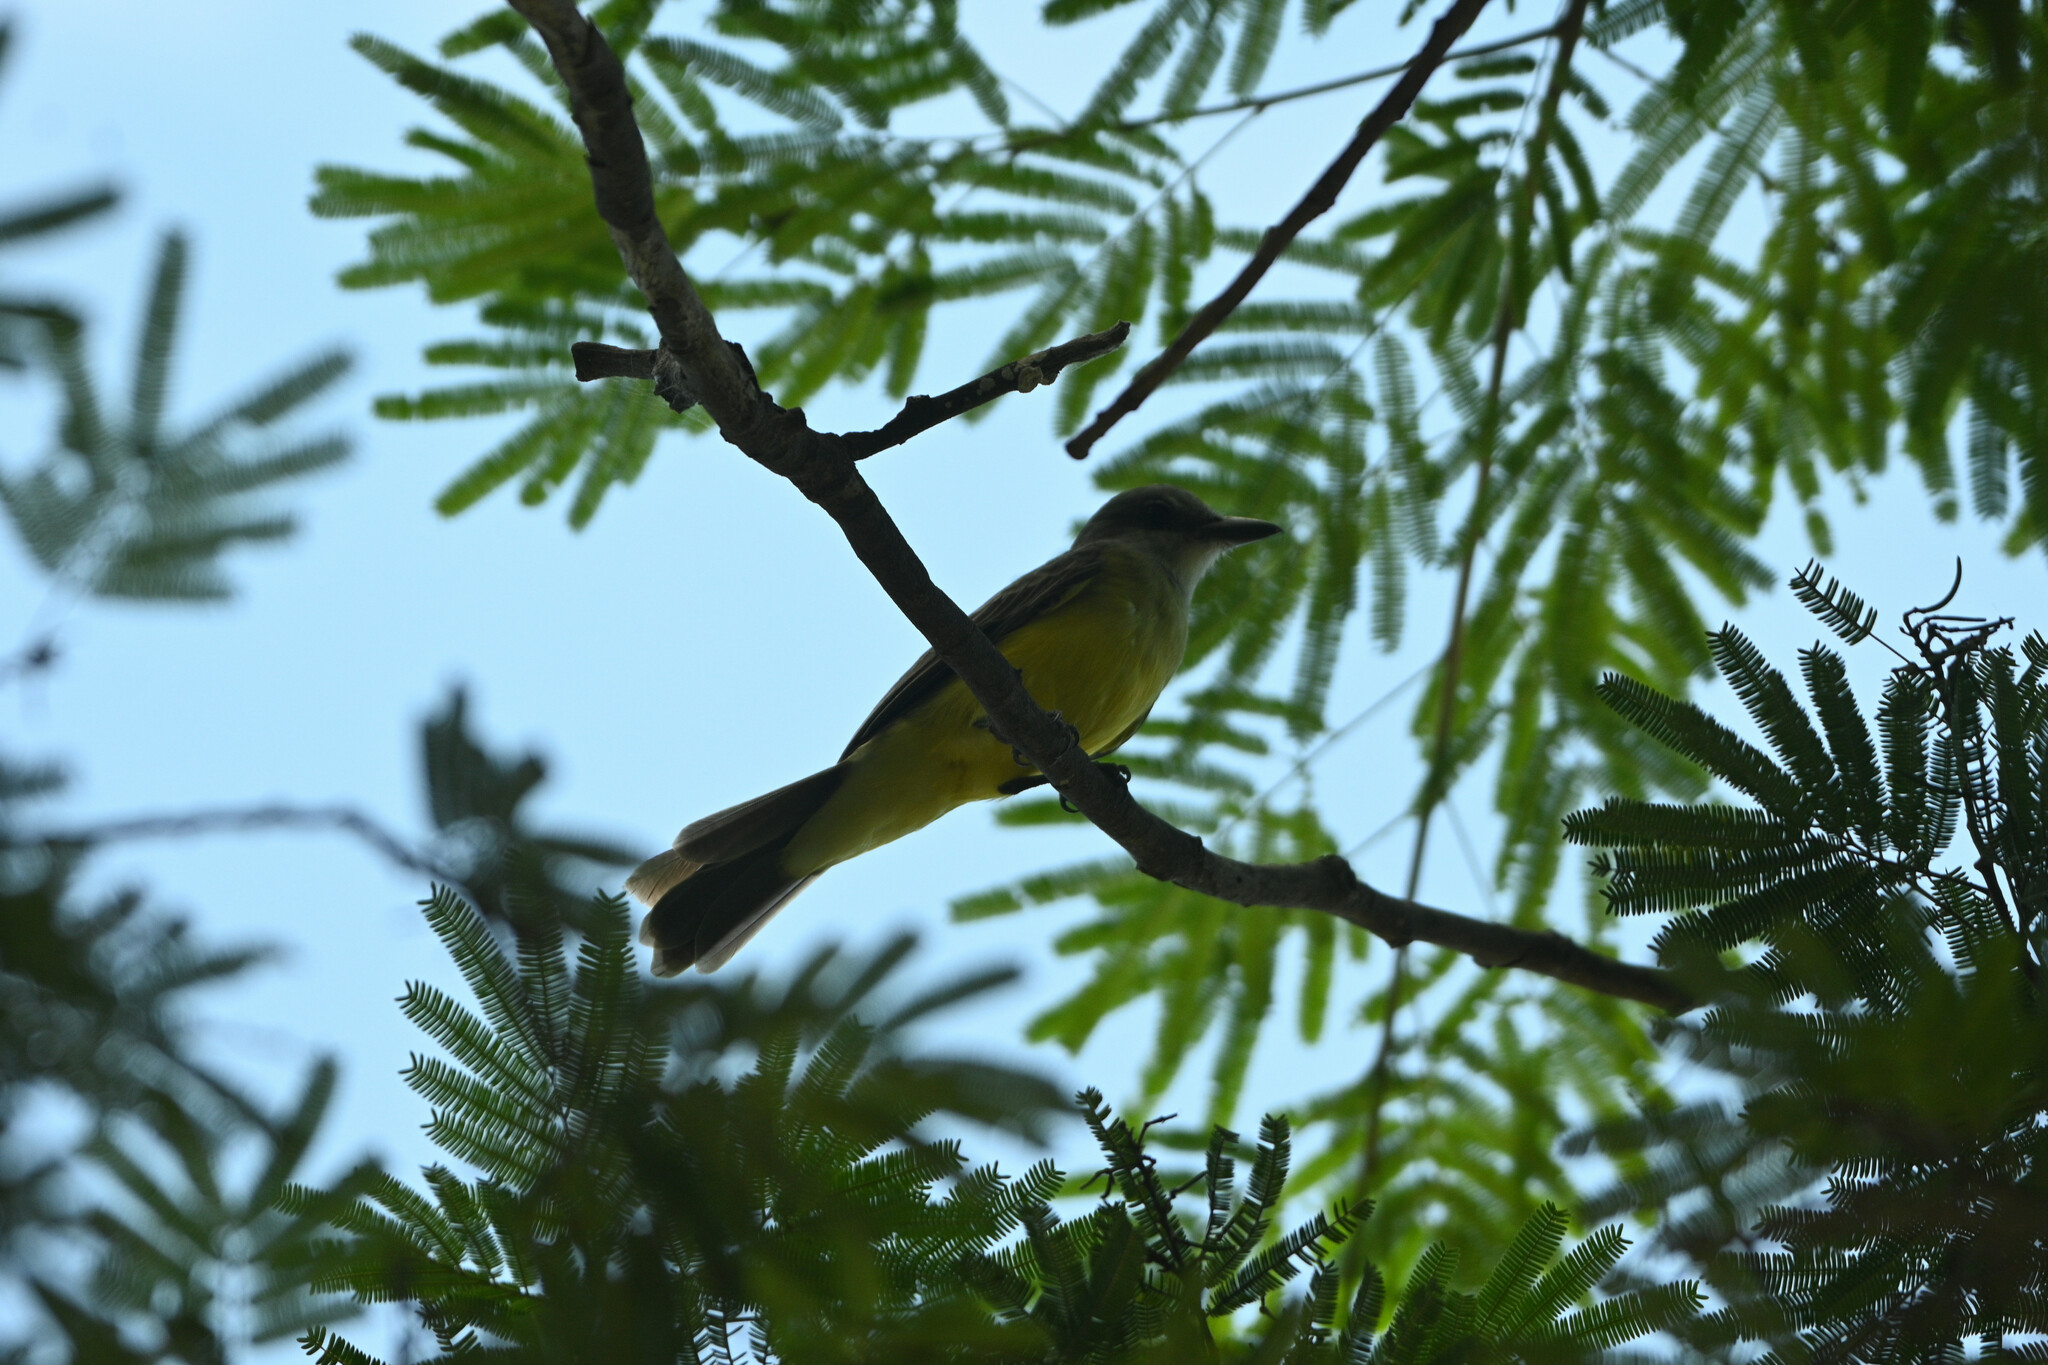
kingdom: Animalia
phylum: Chordata
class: Aves
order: Passeriformes
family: Tyrannidae
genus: Tyrannus
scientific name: Tyrannus melancholicus
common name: Tropical kingbird
